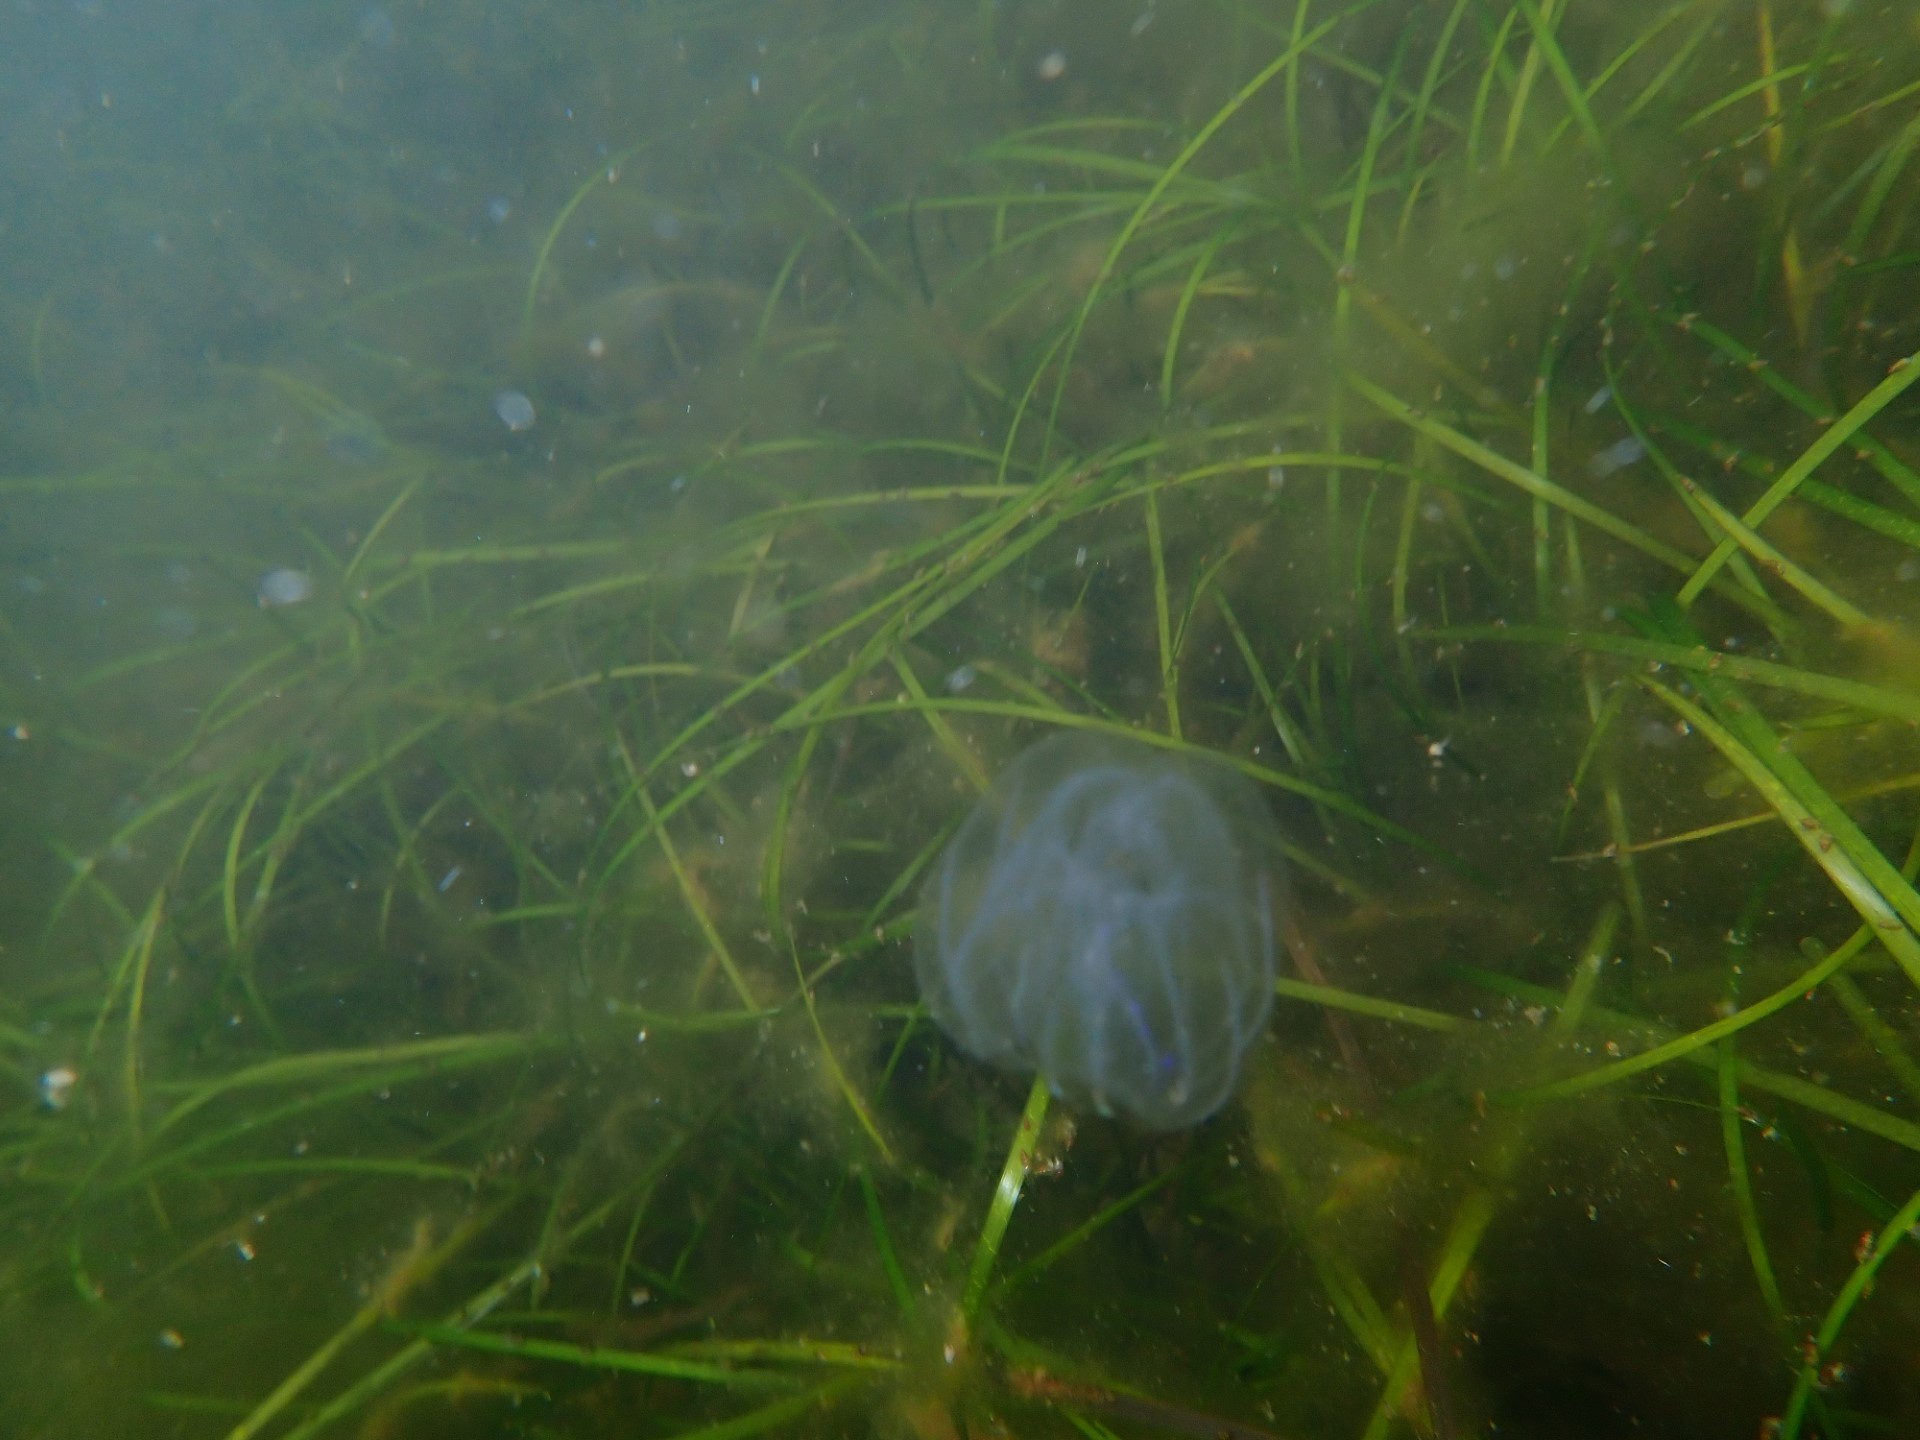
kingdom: Plantae
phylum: Tracheophyta
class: Liliopsida
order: Alismatales
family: Zosteraceae
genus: Zostera
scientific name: Zostera marina
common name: Eelgrass
